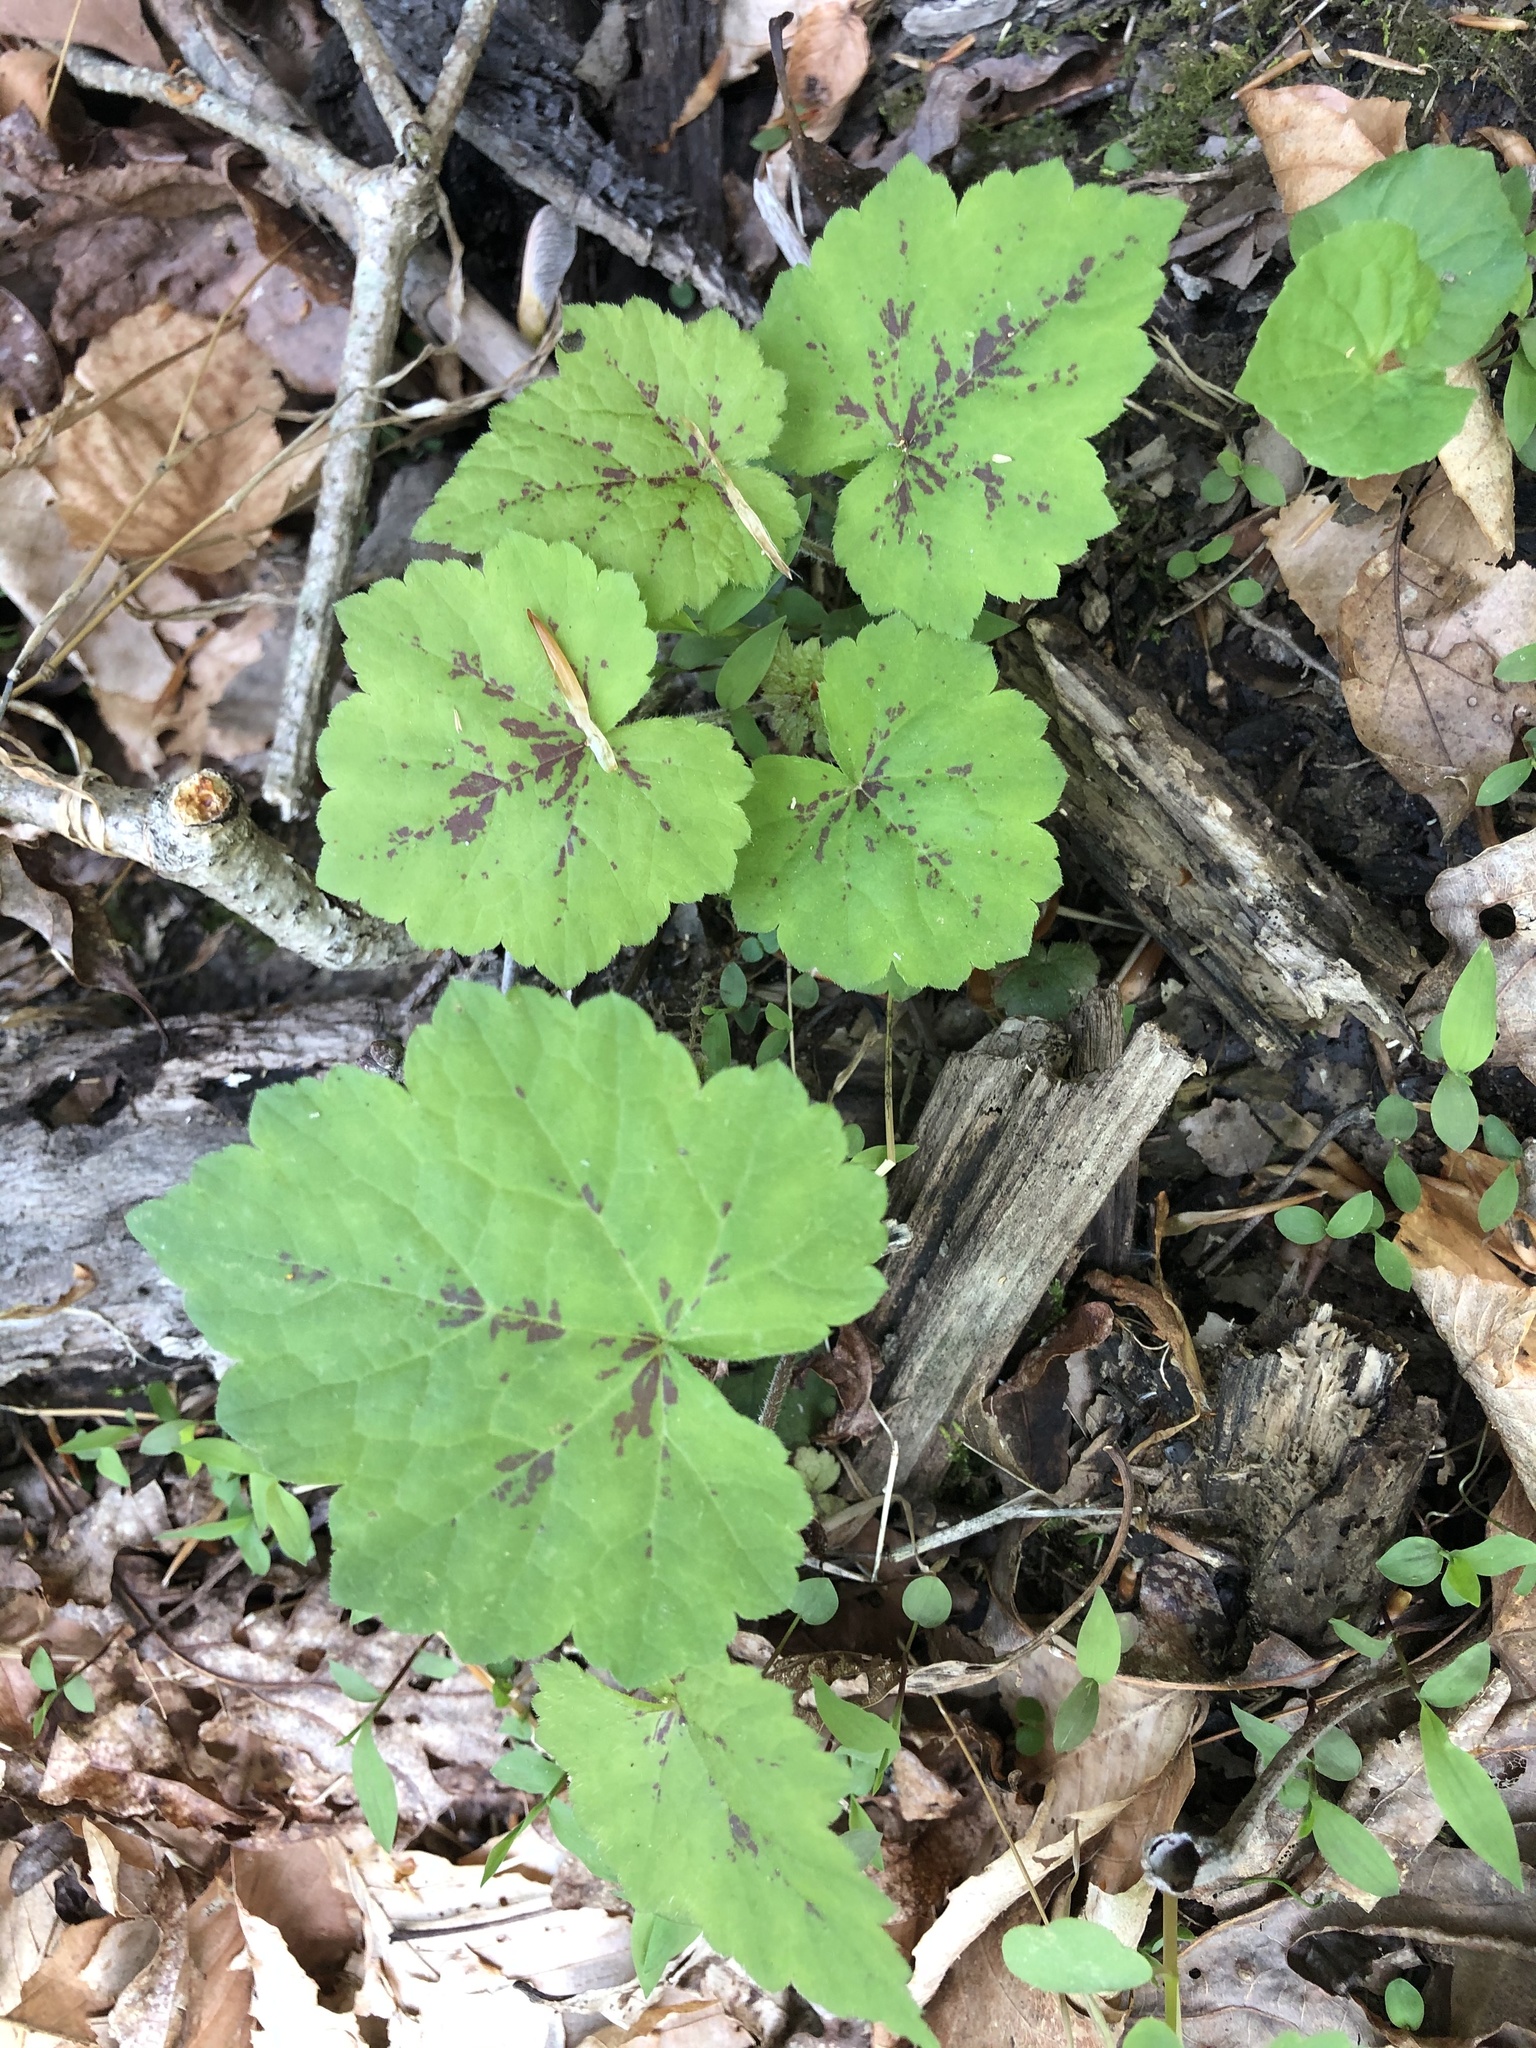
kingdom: Plantae
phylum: Tracheophyta
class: Magnoliopsida
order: Saxifragales
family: Saxifragaceae
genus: Tiarella
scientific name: Tiarella stolonifera
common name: Stoloniferous foamflower
